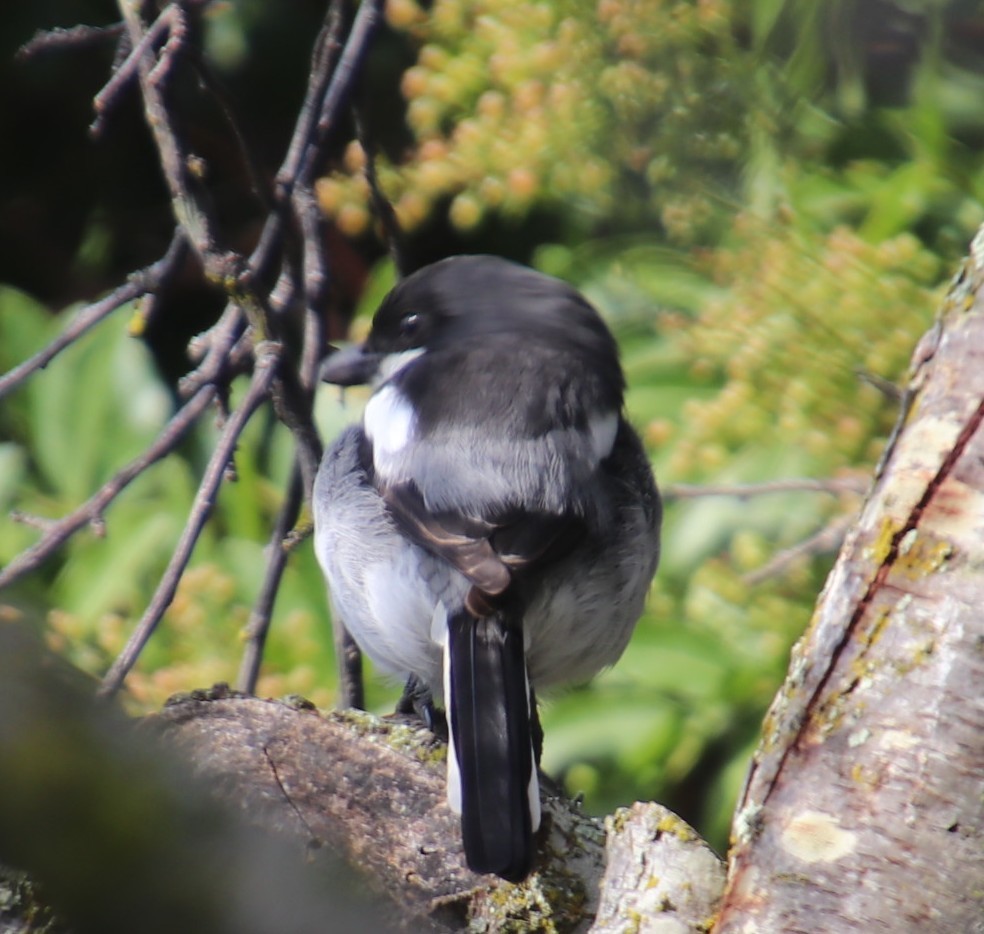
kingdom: Animalia
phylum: Chordata
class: Aves
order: Passeriformes
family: Laniidae
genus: Lanius
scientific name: Lanius collaris
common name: Southern fiscal
